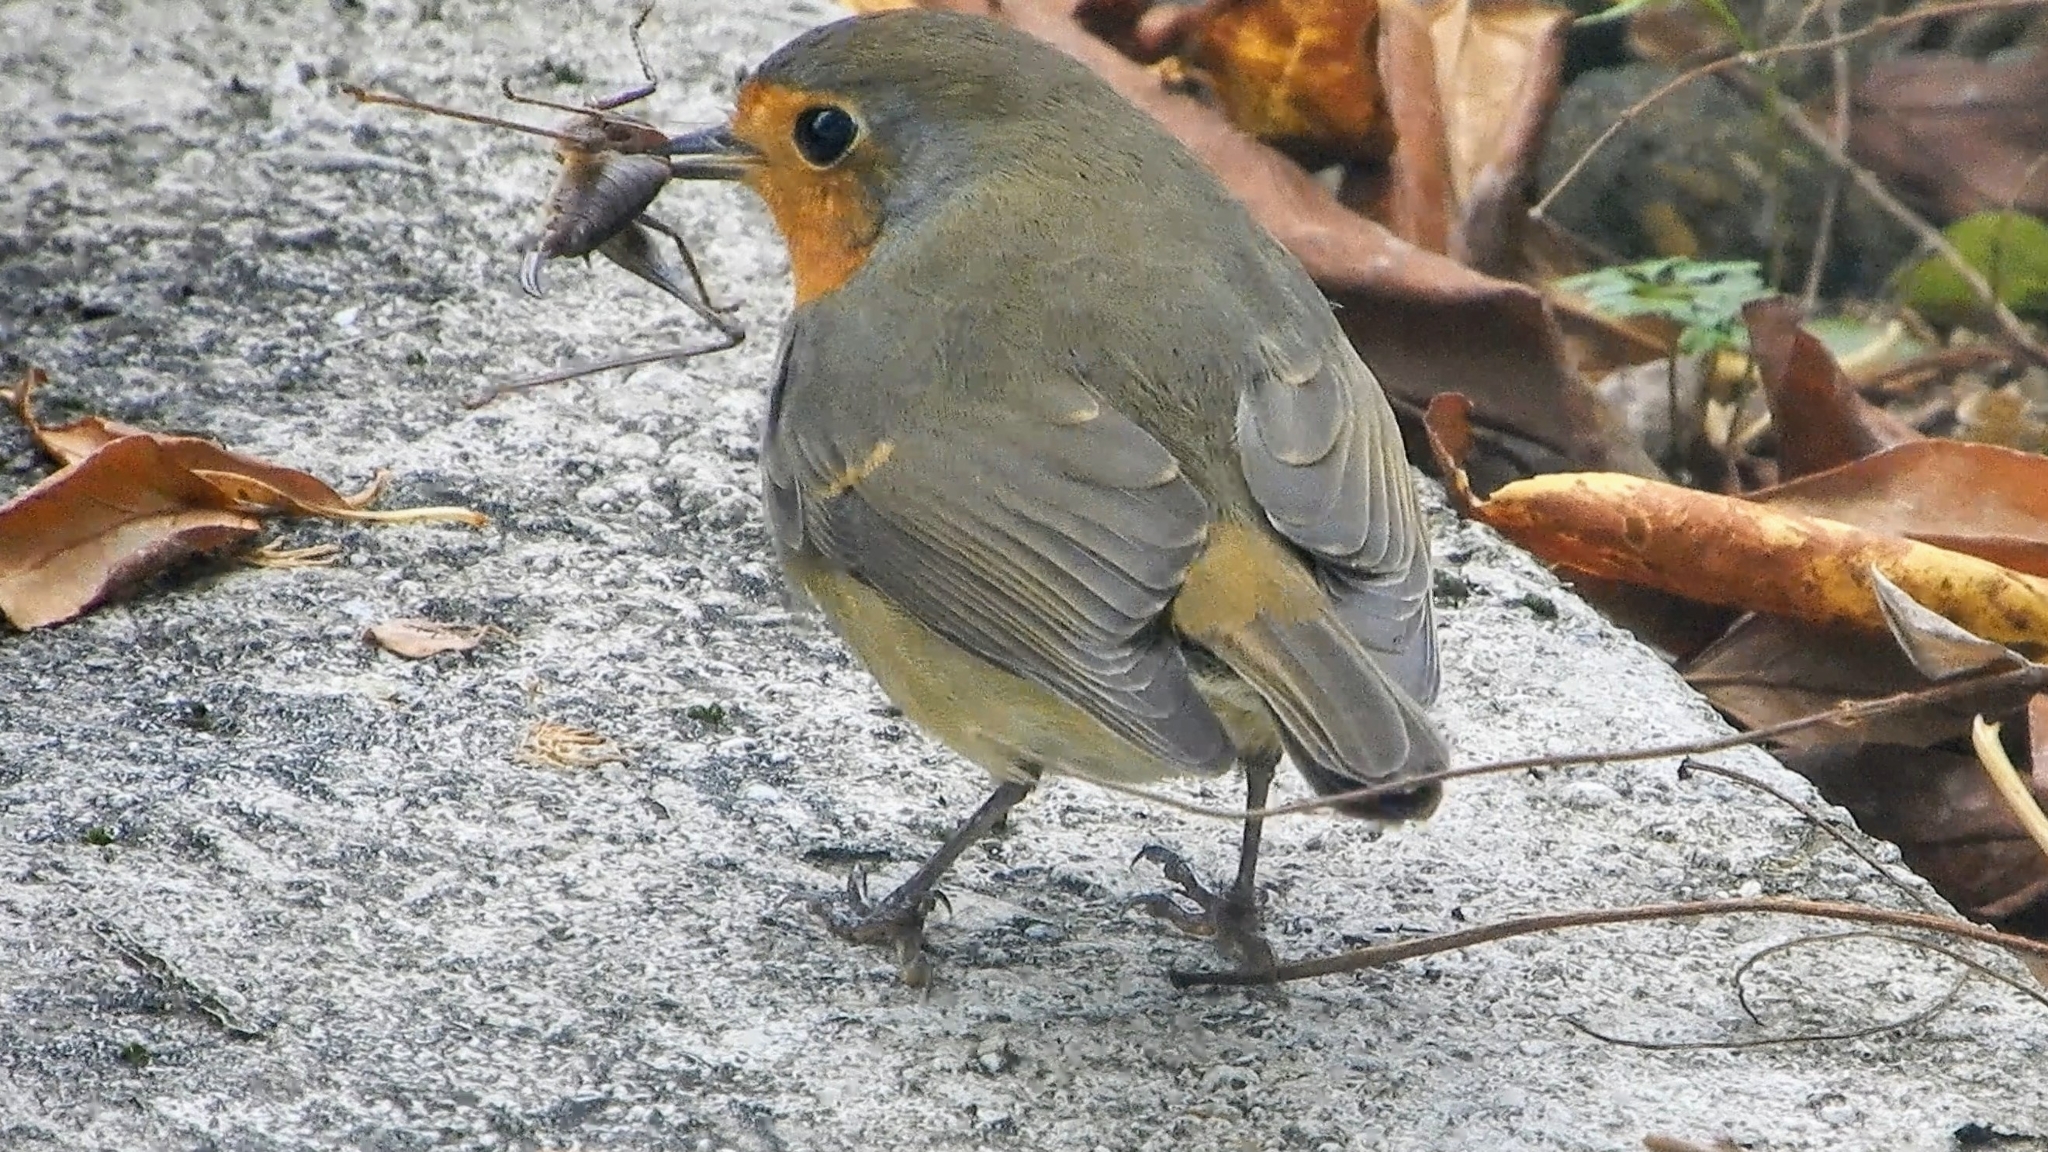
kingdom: Animalia
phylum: Chordata
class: Aves
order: Passeriformes
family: Muscicapidae
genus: Erithacus
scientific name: Erithacus rubecula
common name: European robin
